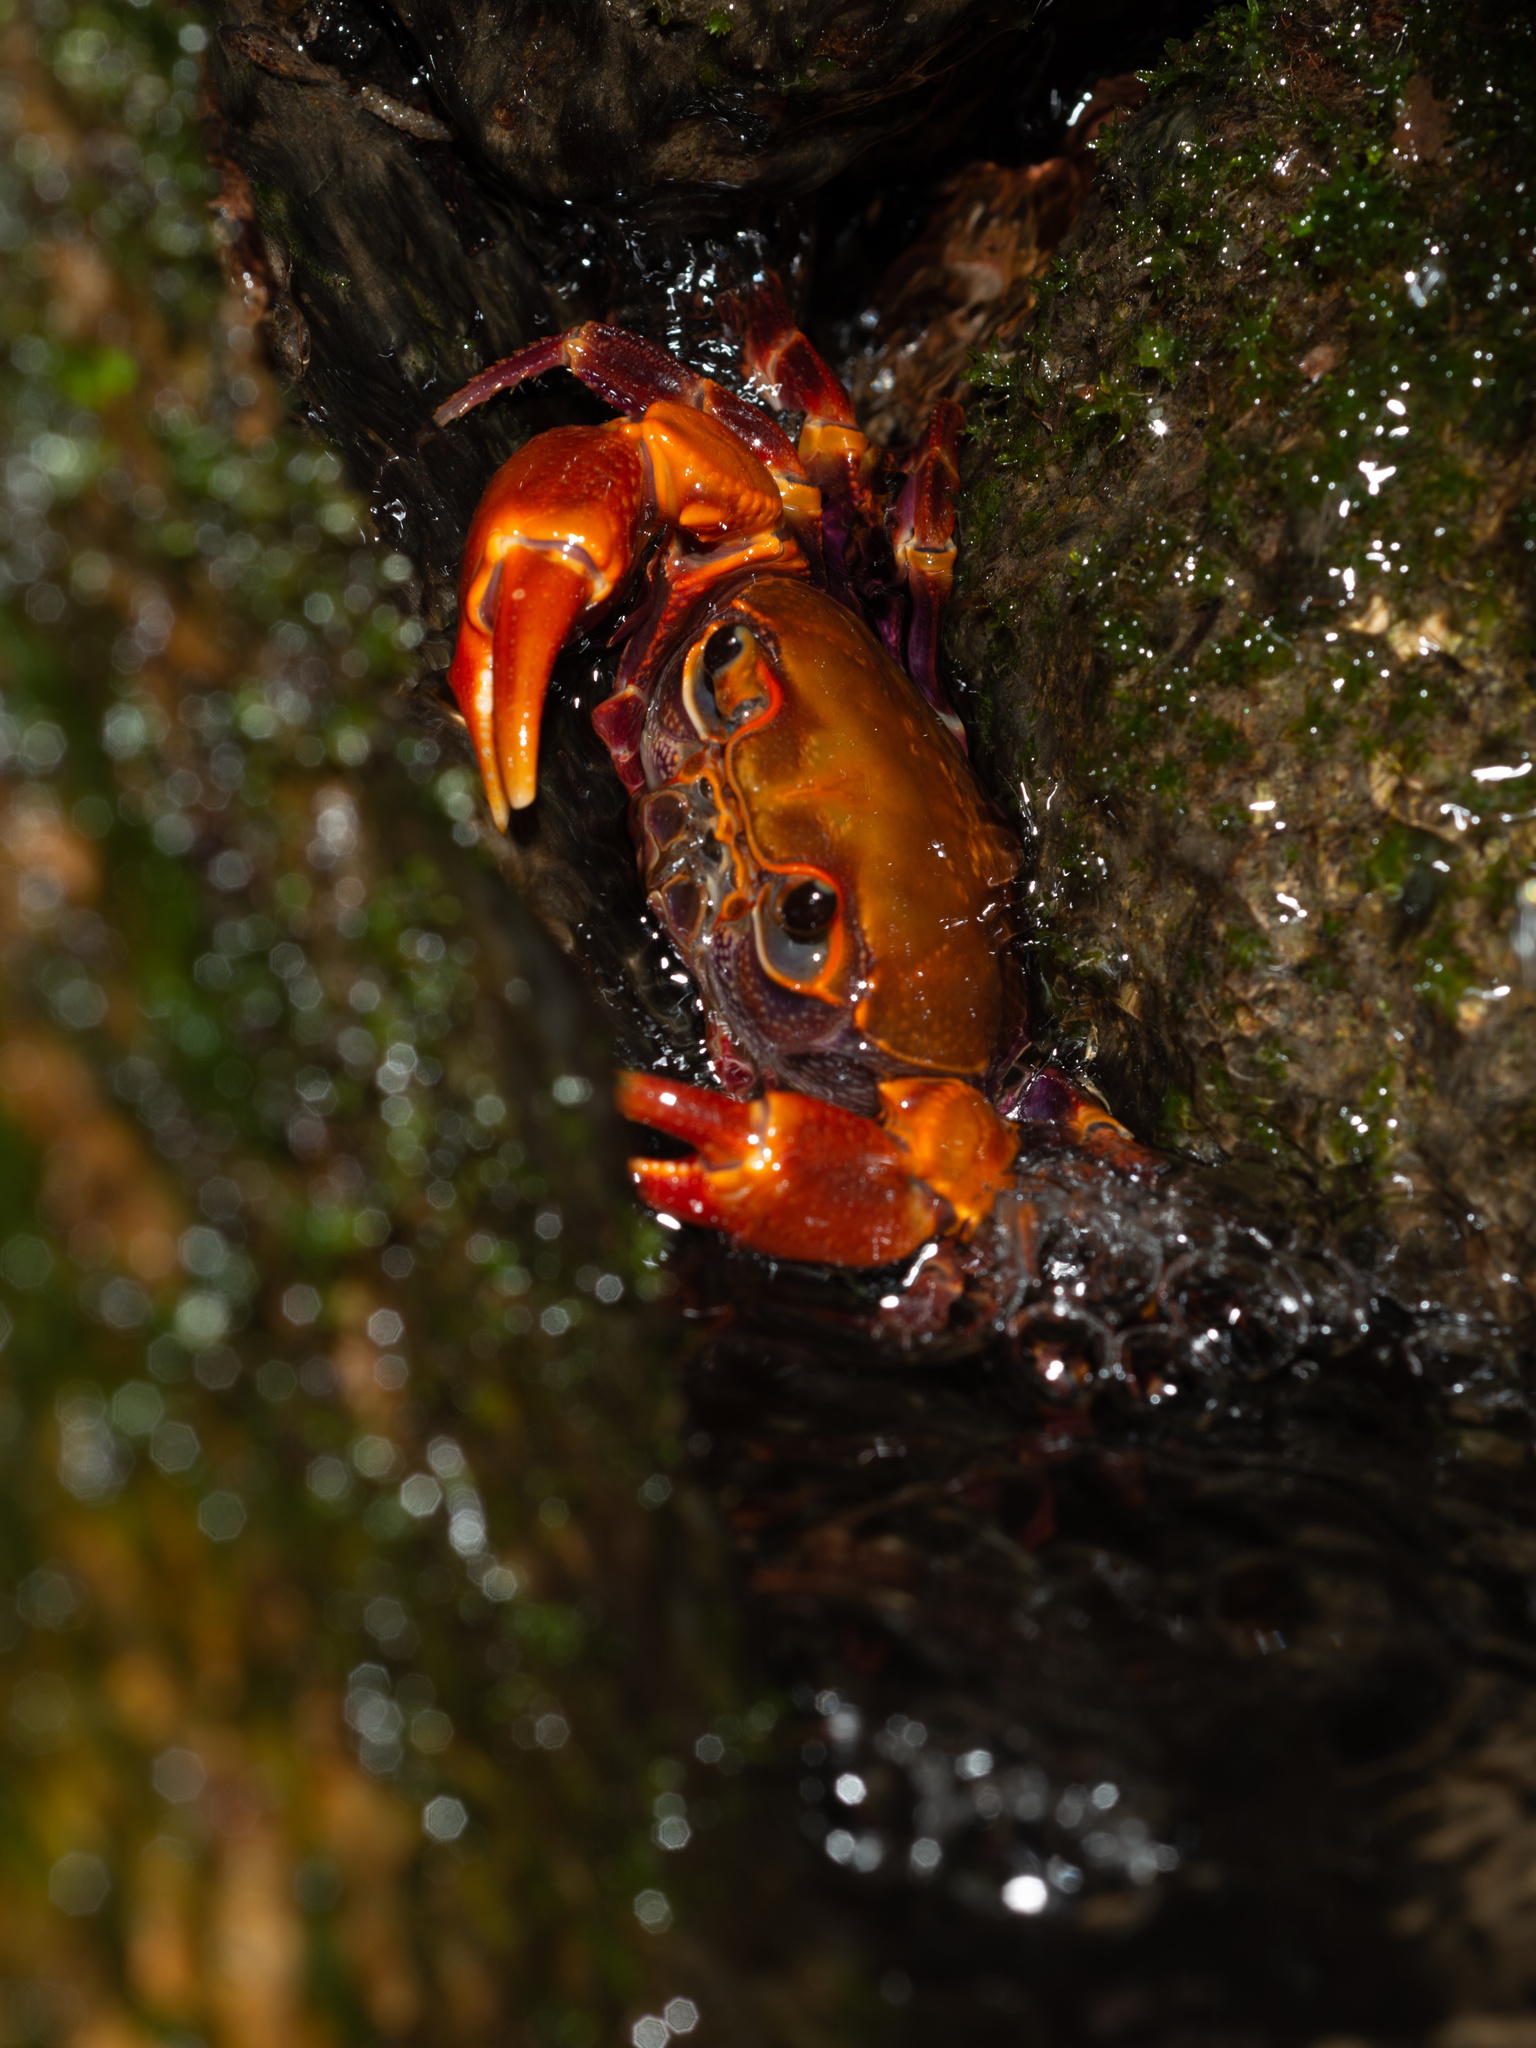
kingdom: Animalia
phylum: Arthropoda
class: Malacostraca
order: Decapoda
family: Potamidae
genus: Nanhaipotamon
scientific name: Nanhaipotamon hongkongense
